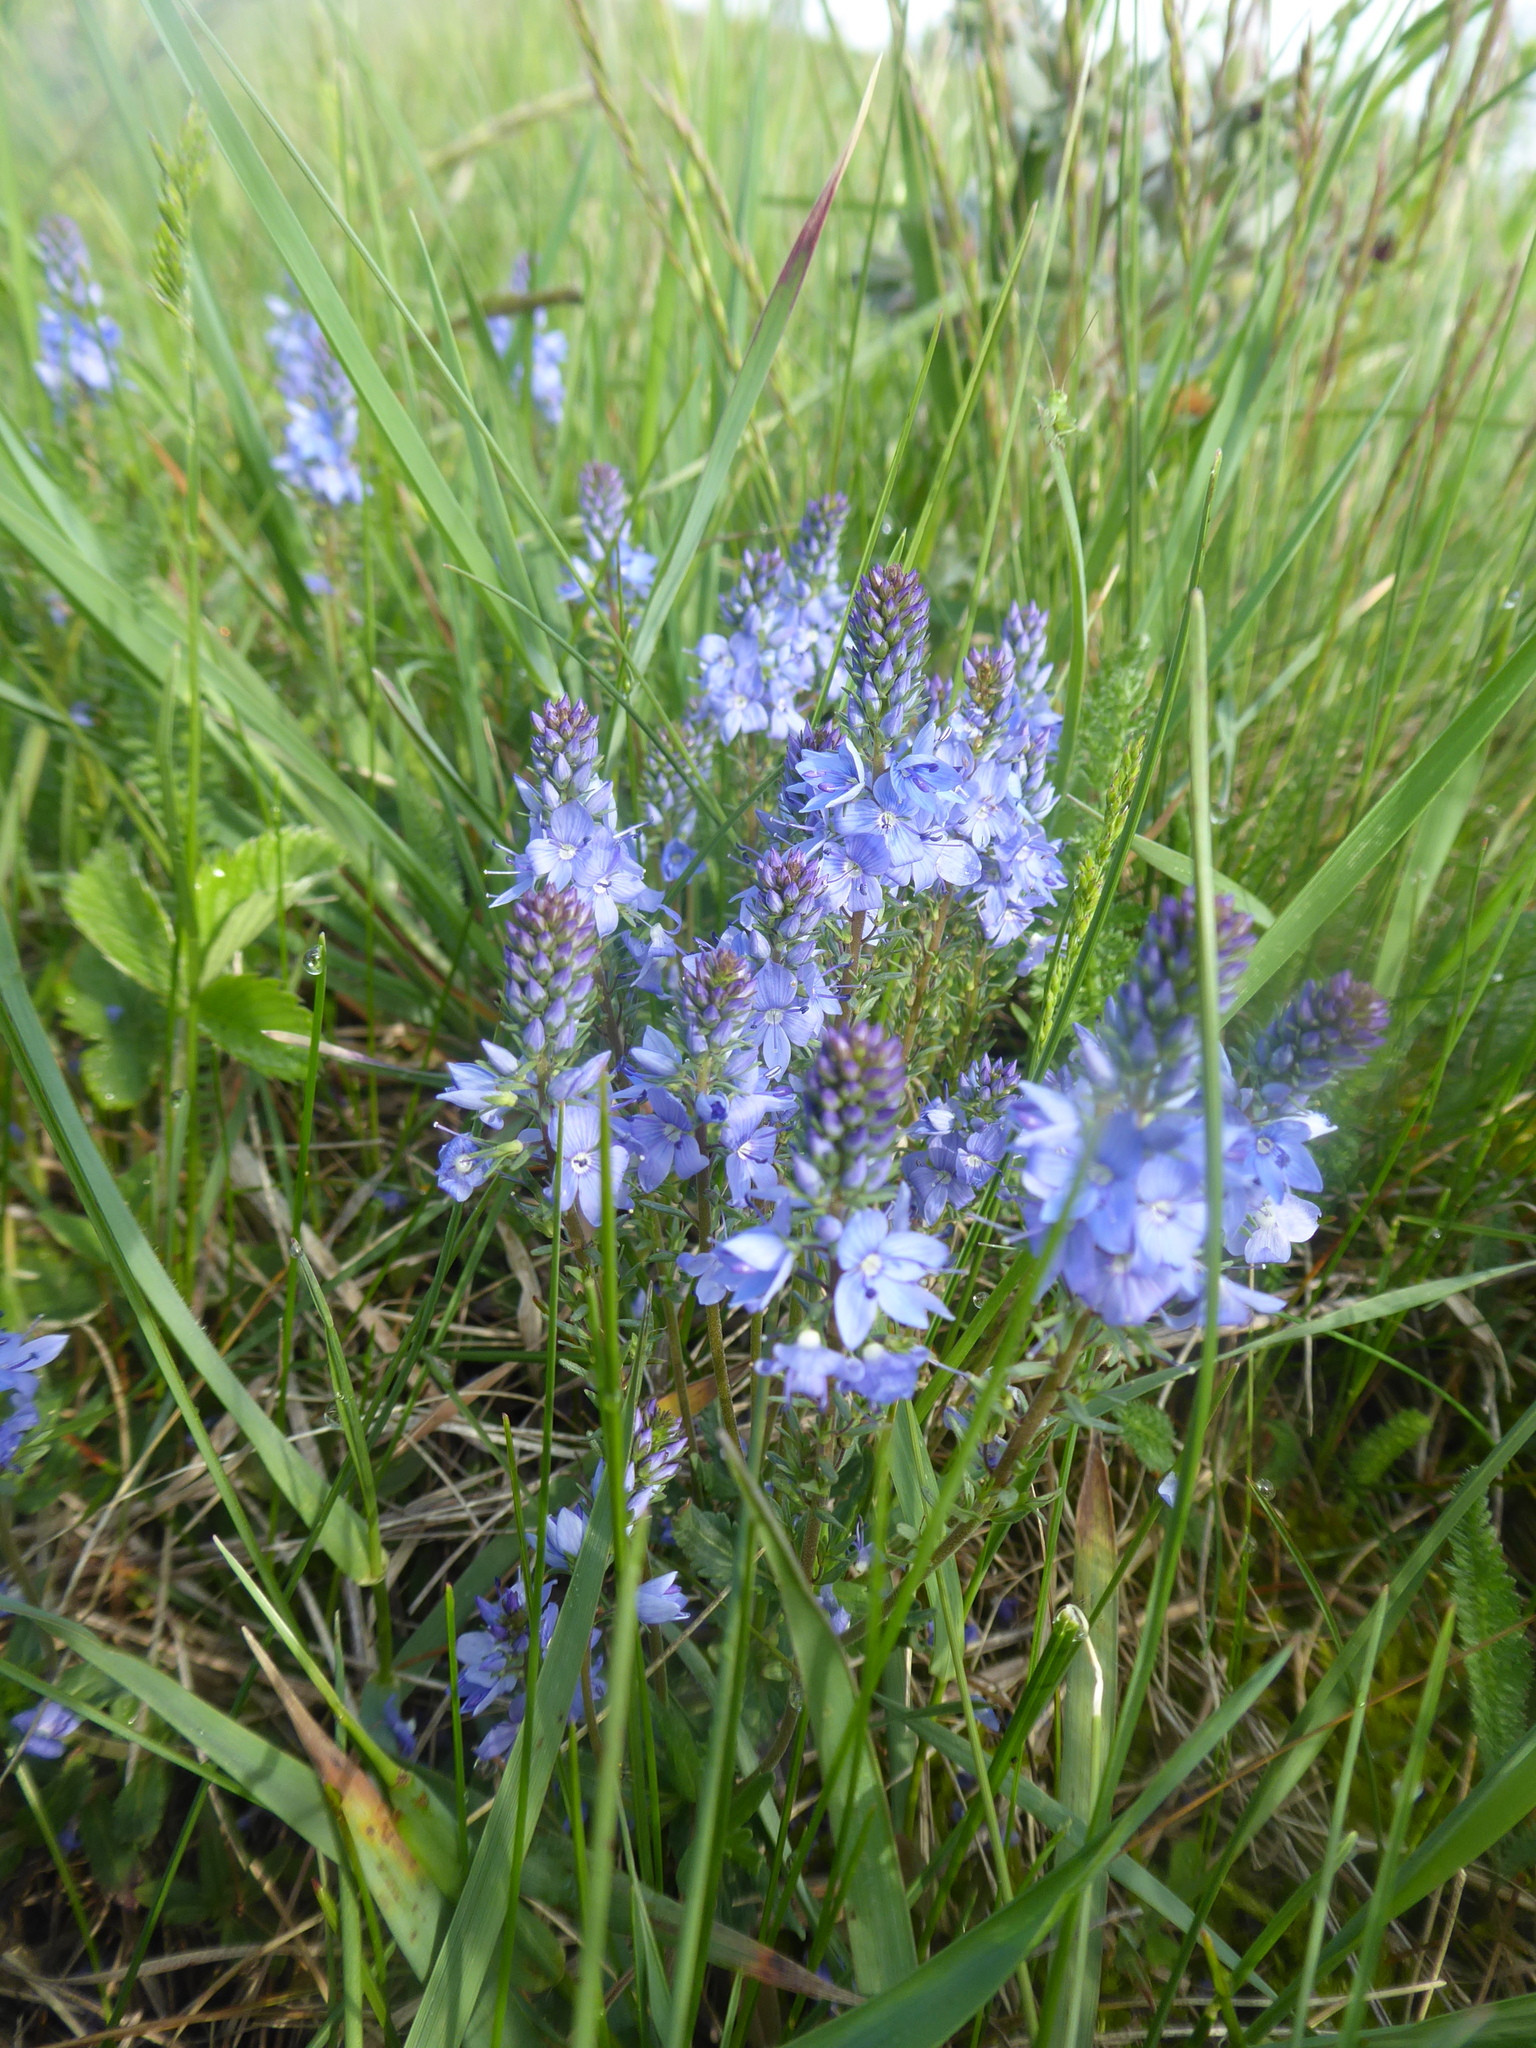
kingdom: Plantae
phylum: Tracheophyta
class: Magnoliopsida
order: Lamiales
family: Plantaginaceae
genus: Veronica
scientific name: Veronica prostrata
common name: Prostrate speedwell
